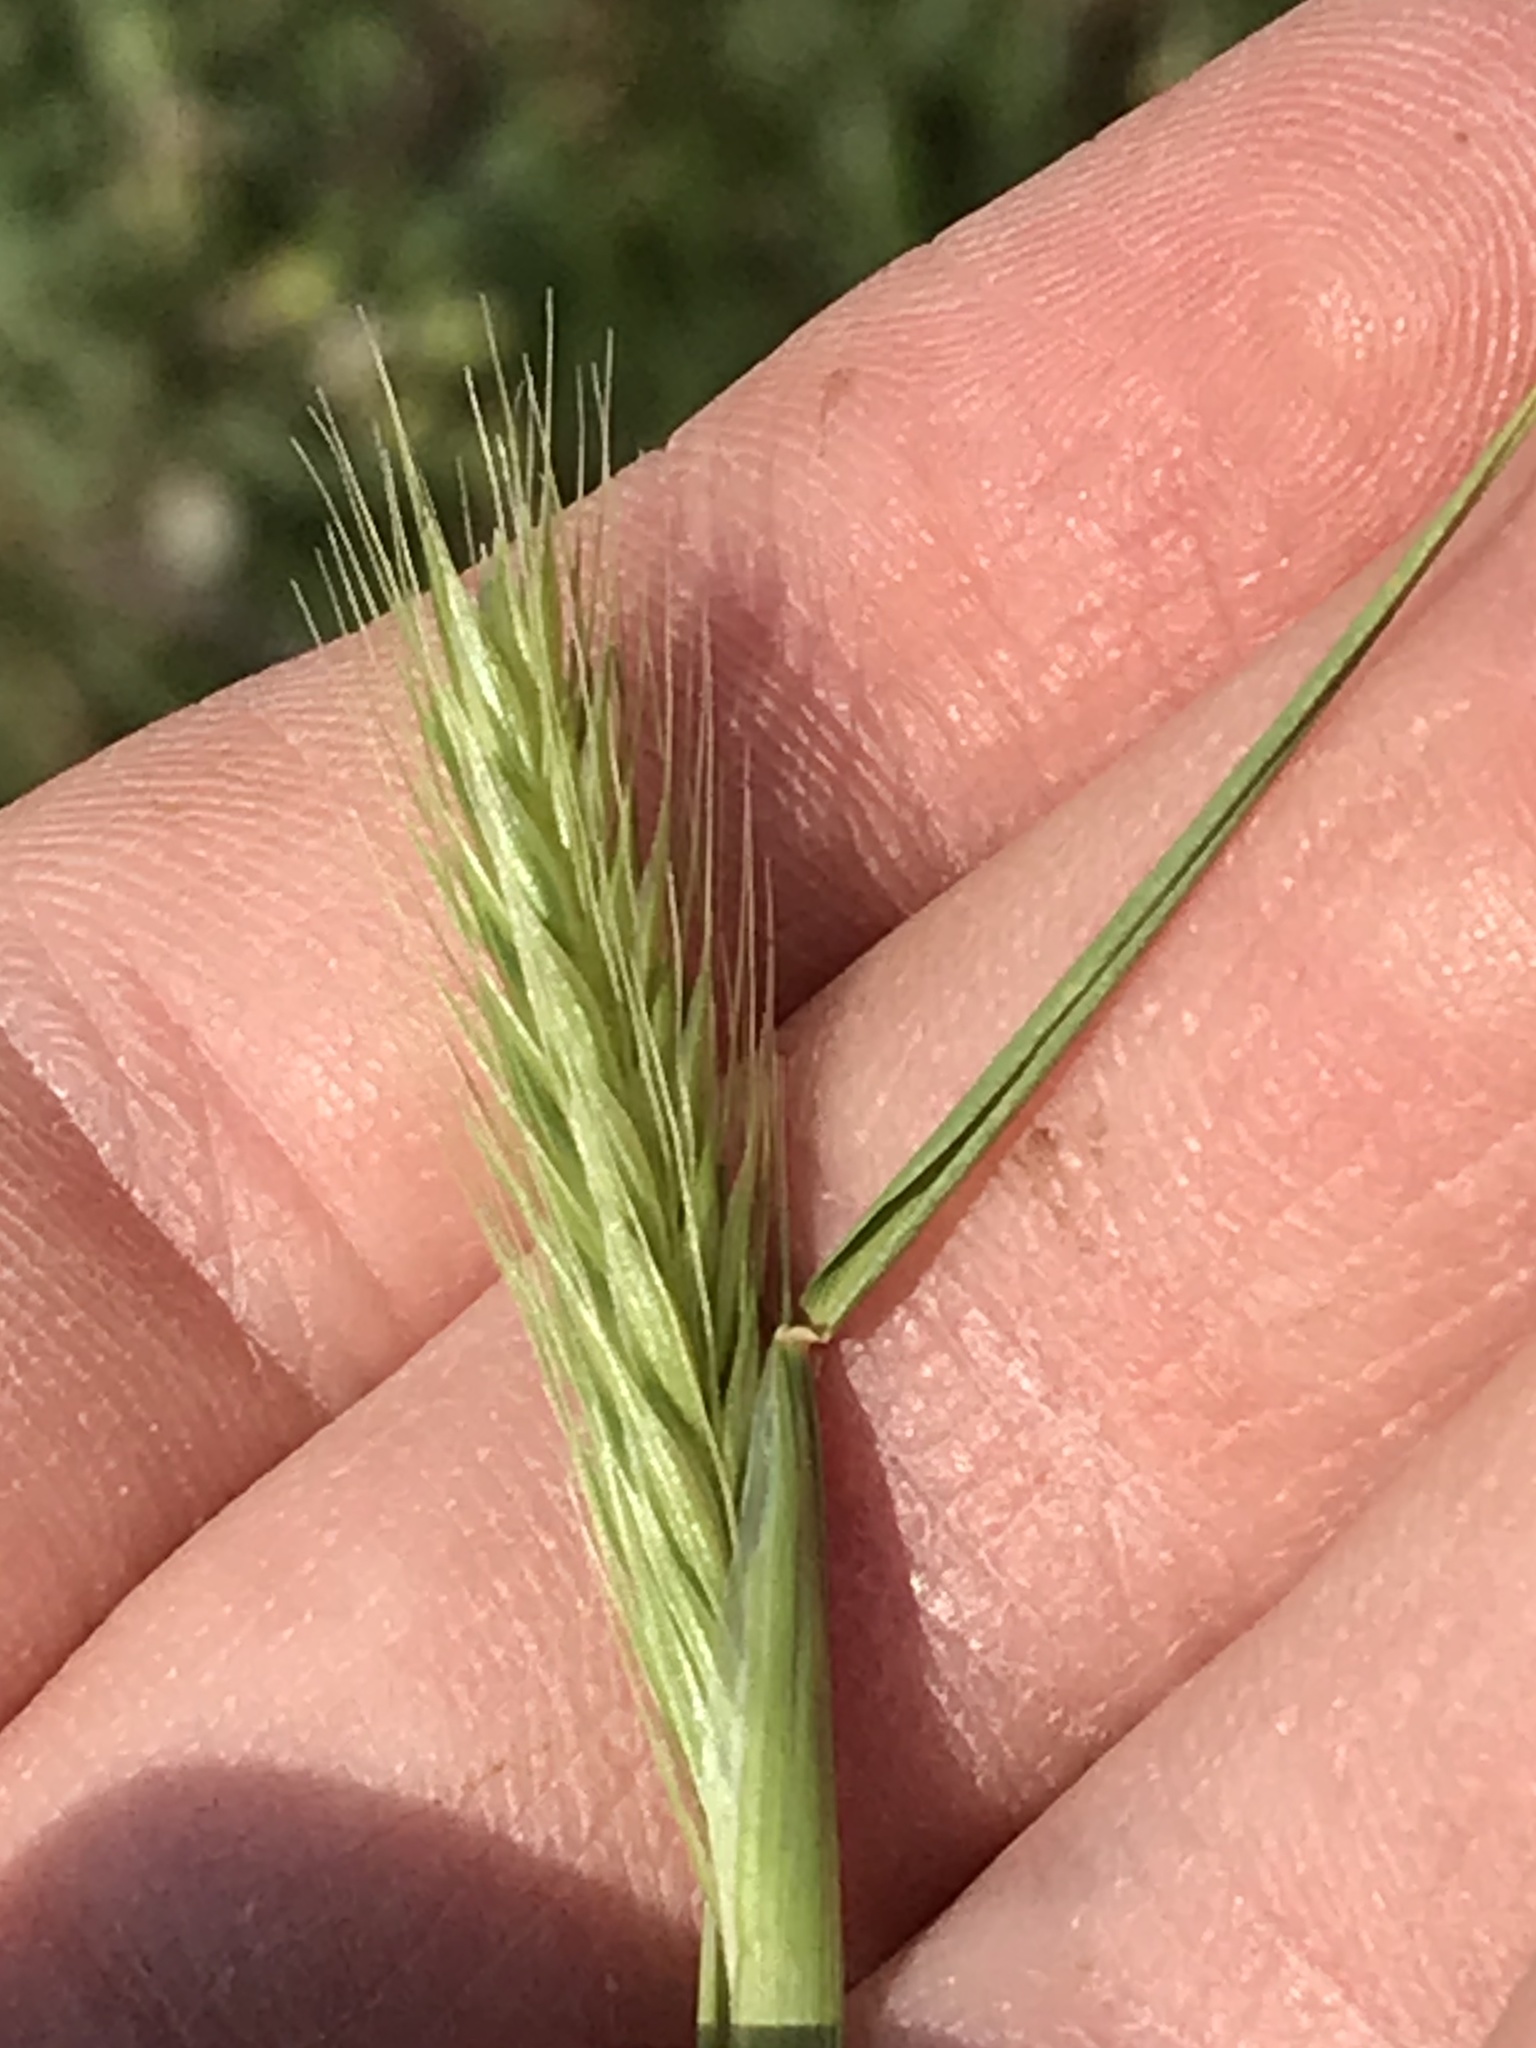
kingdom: Plantae
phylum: Tracheophyta
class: Liliopsida
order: Poales
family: Poaceae
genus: Hordeum
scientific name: Hordeum pusillum
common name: Little barley
